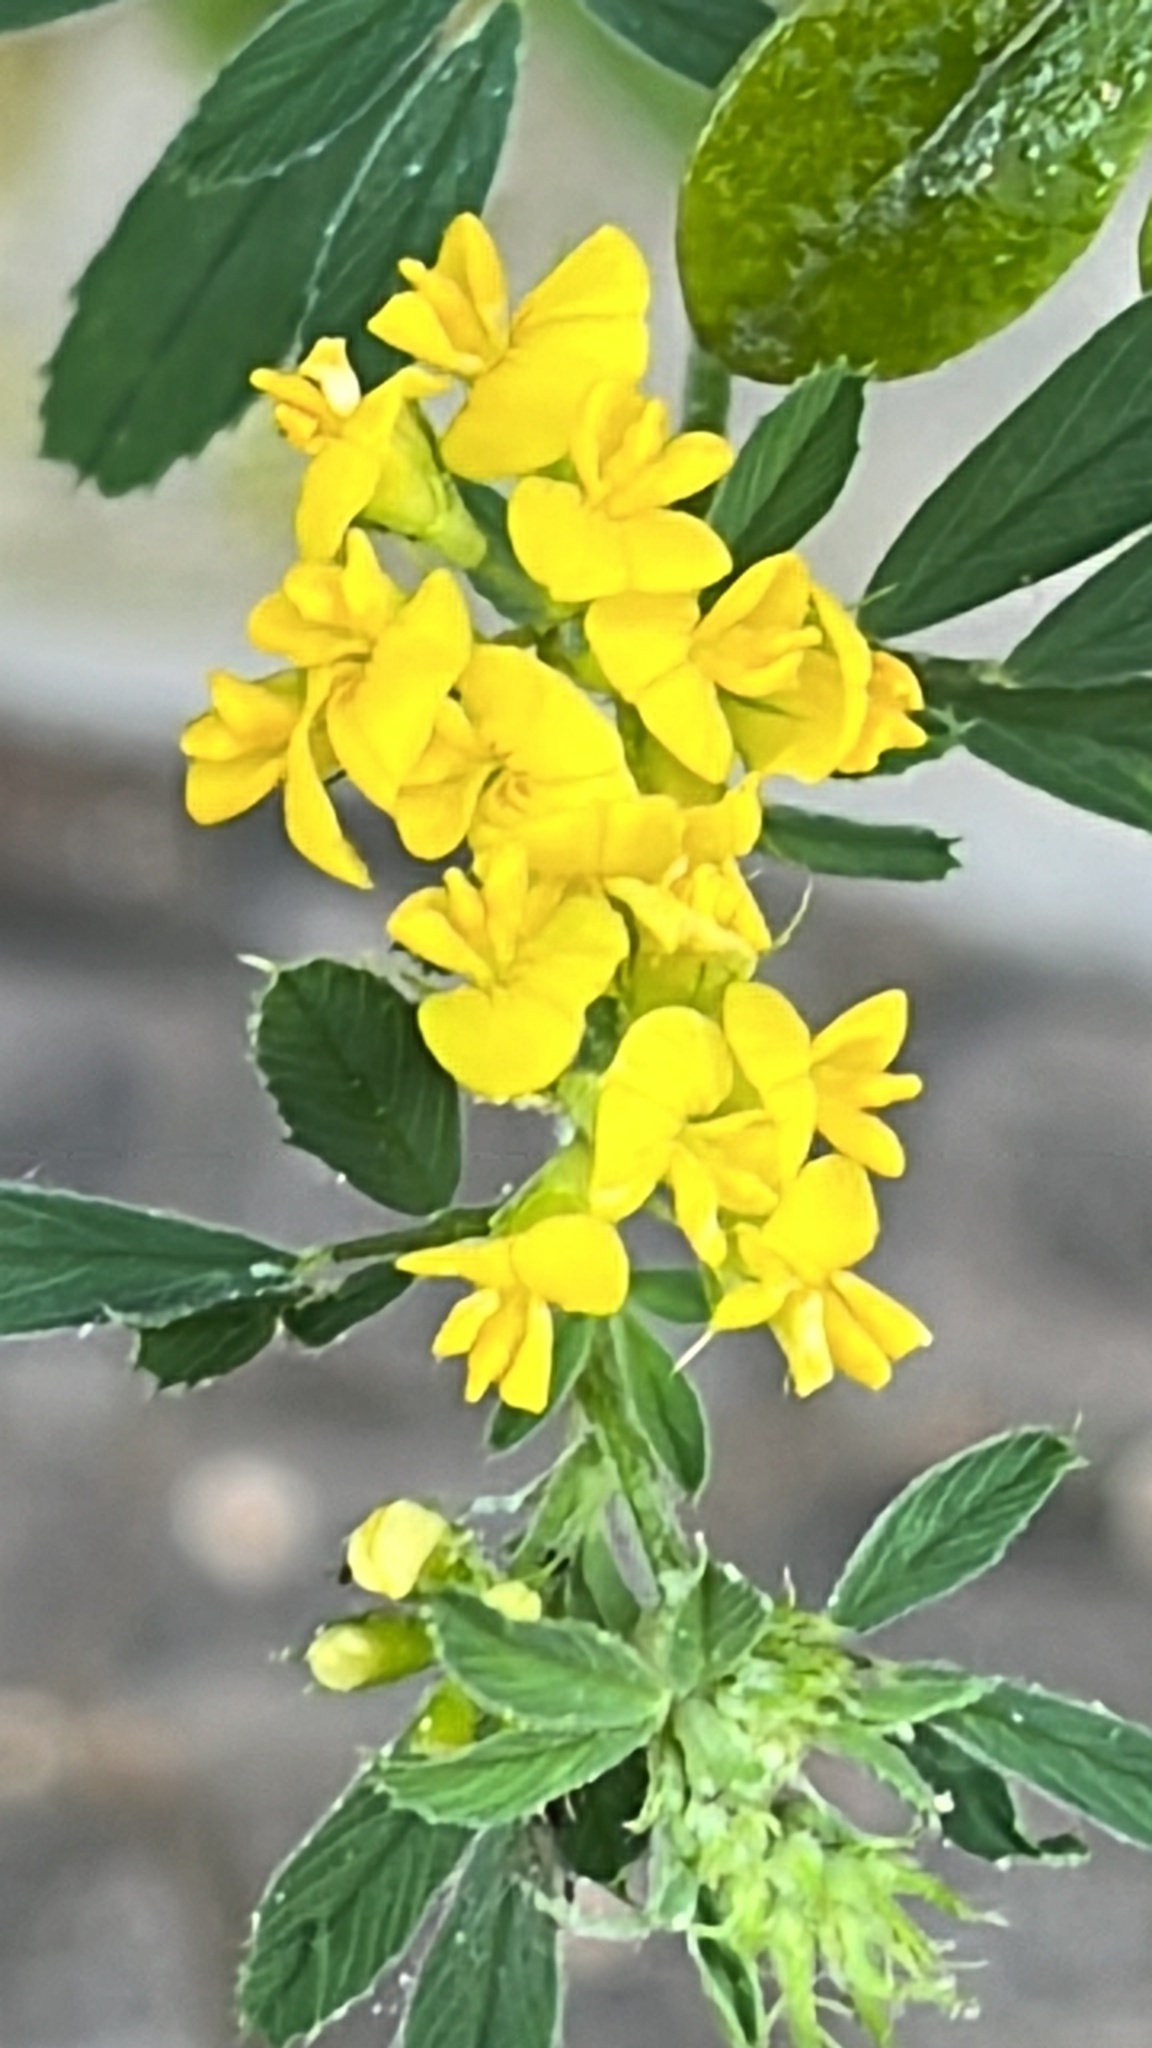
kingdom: Plantae
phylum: Tracheophyta
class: Magnoliopsida
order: Fabales
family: Fabaceae
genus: Medicago
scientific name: Medicago falcata
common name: Sickle medick
